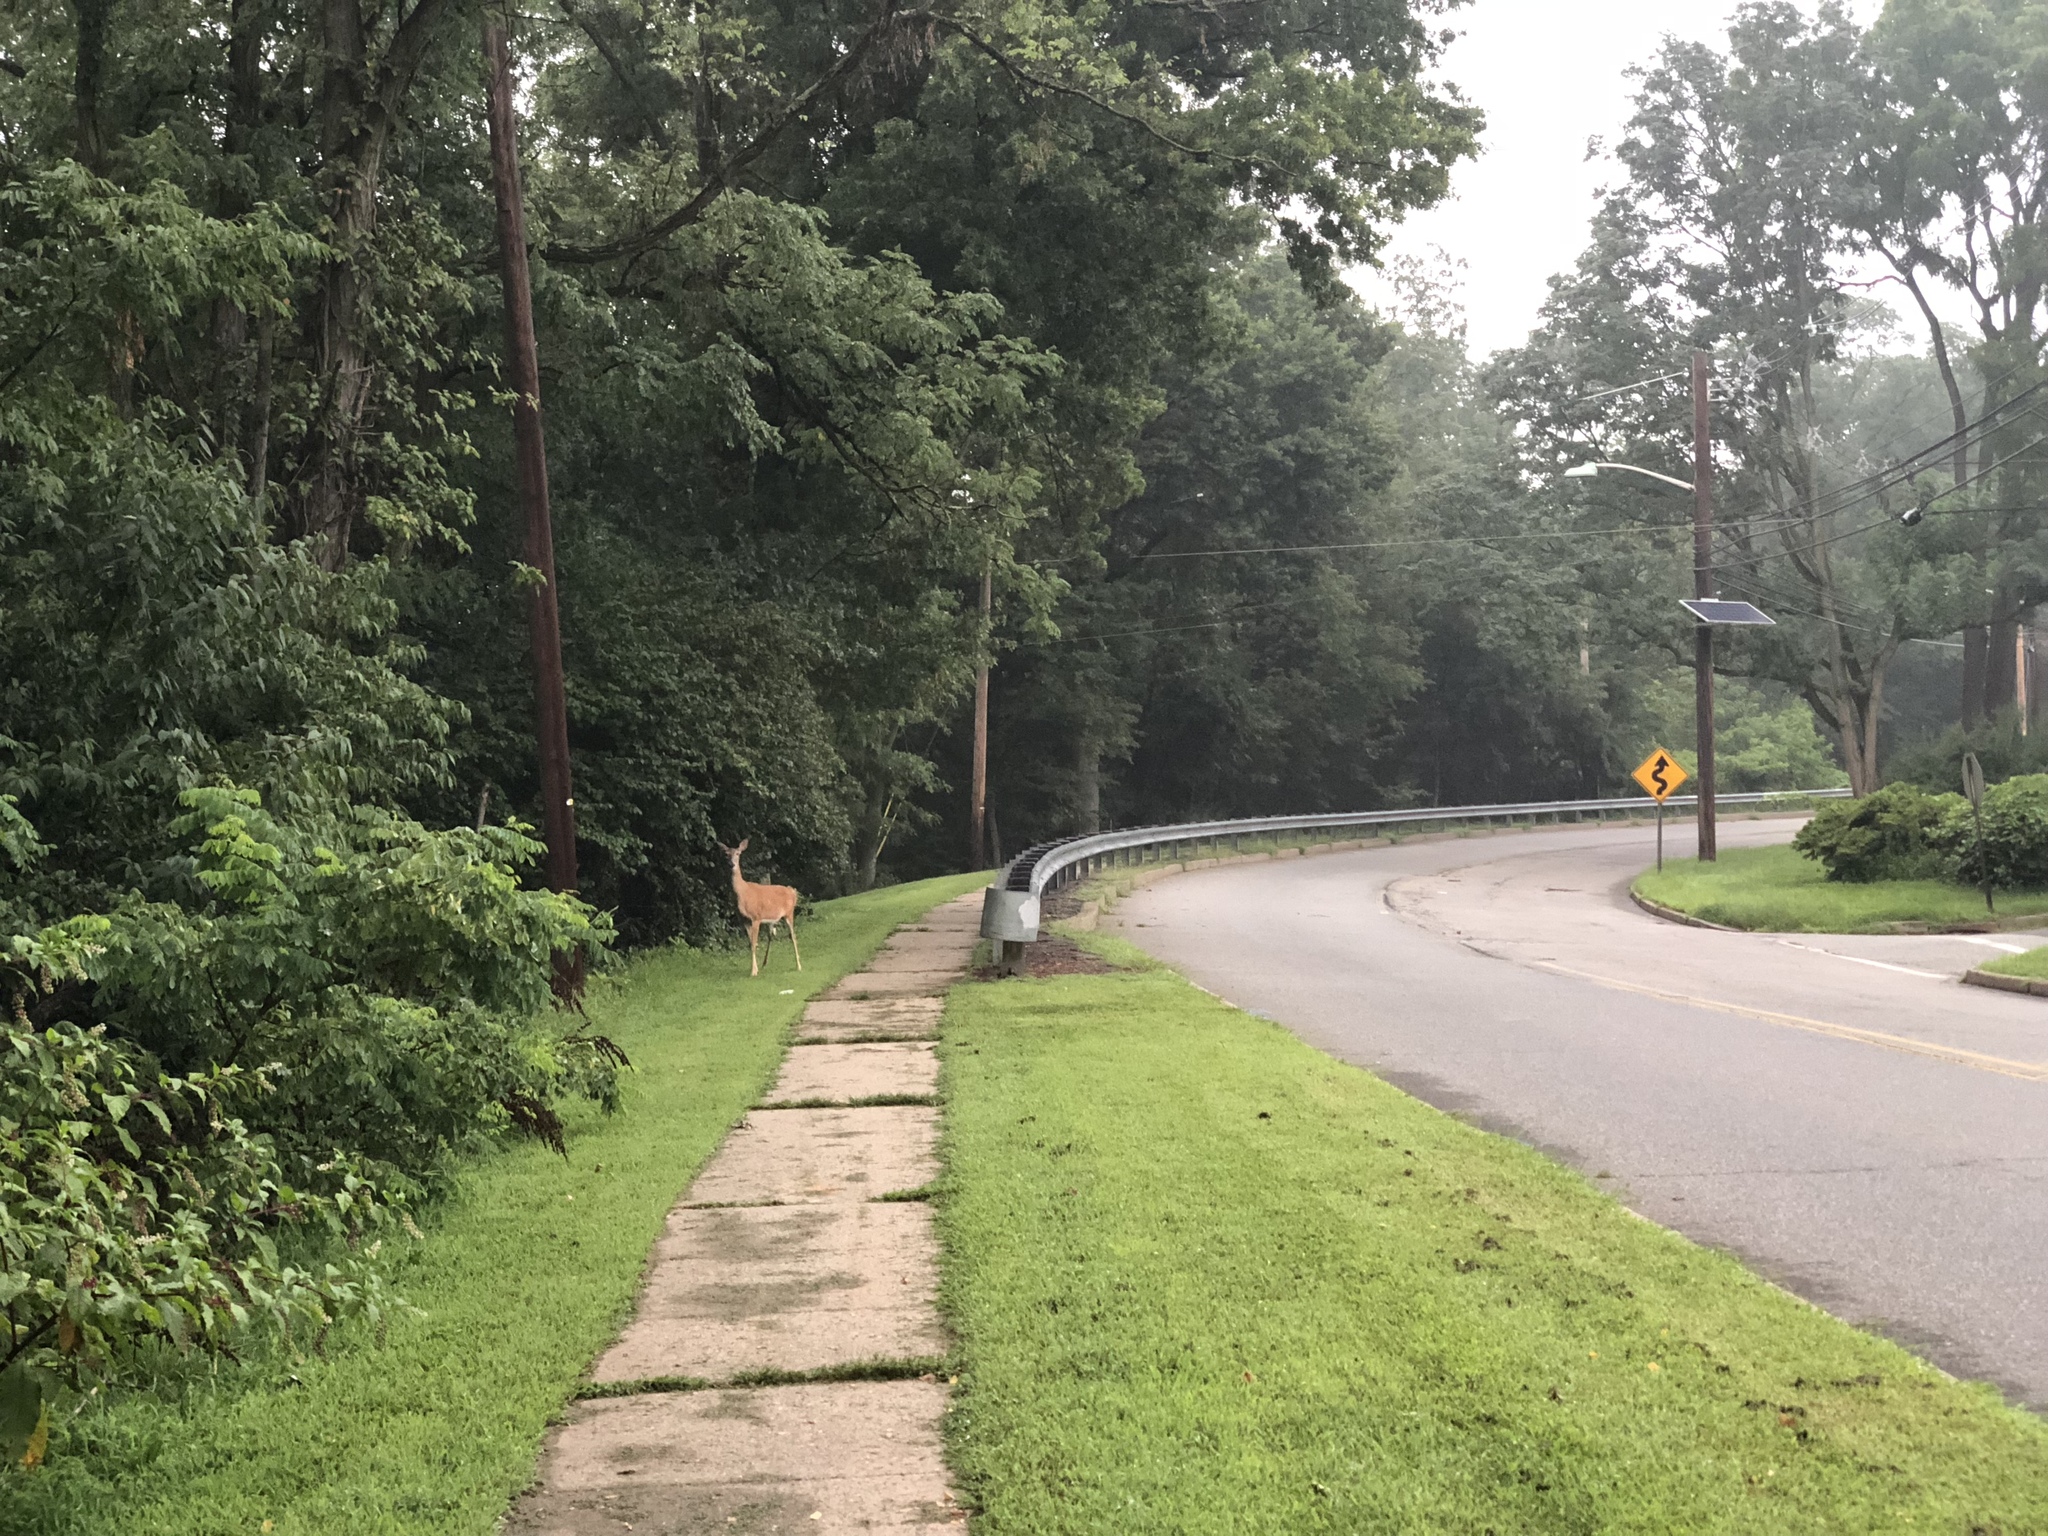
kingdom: Animalia
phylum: Chordata
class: Mammalia
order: Artiodactyla
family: Cervidae
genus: Odocoileus
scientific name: Odocoileus virginianus
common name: White-tailed deer
